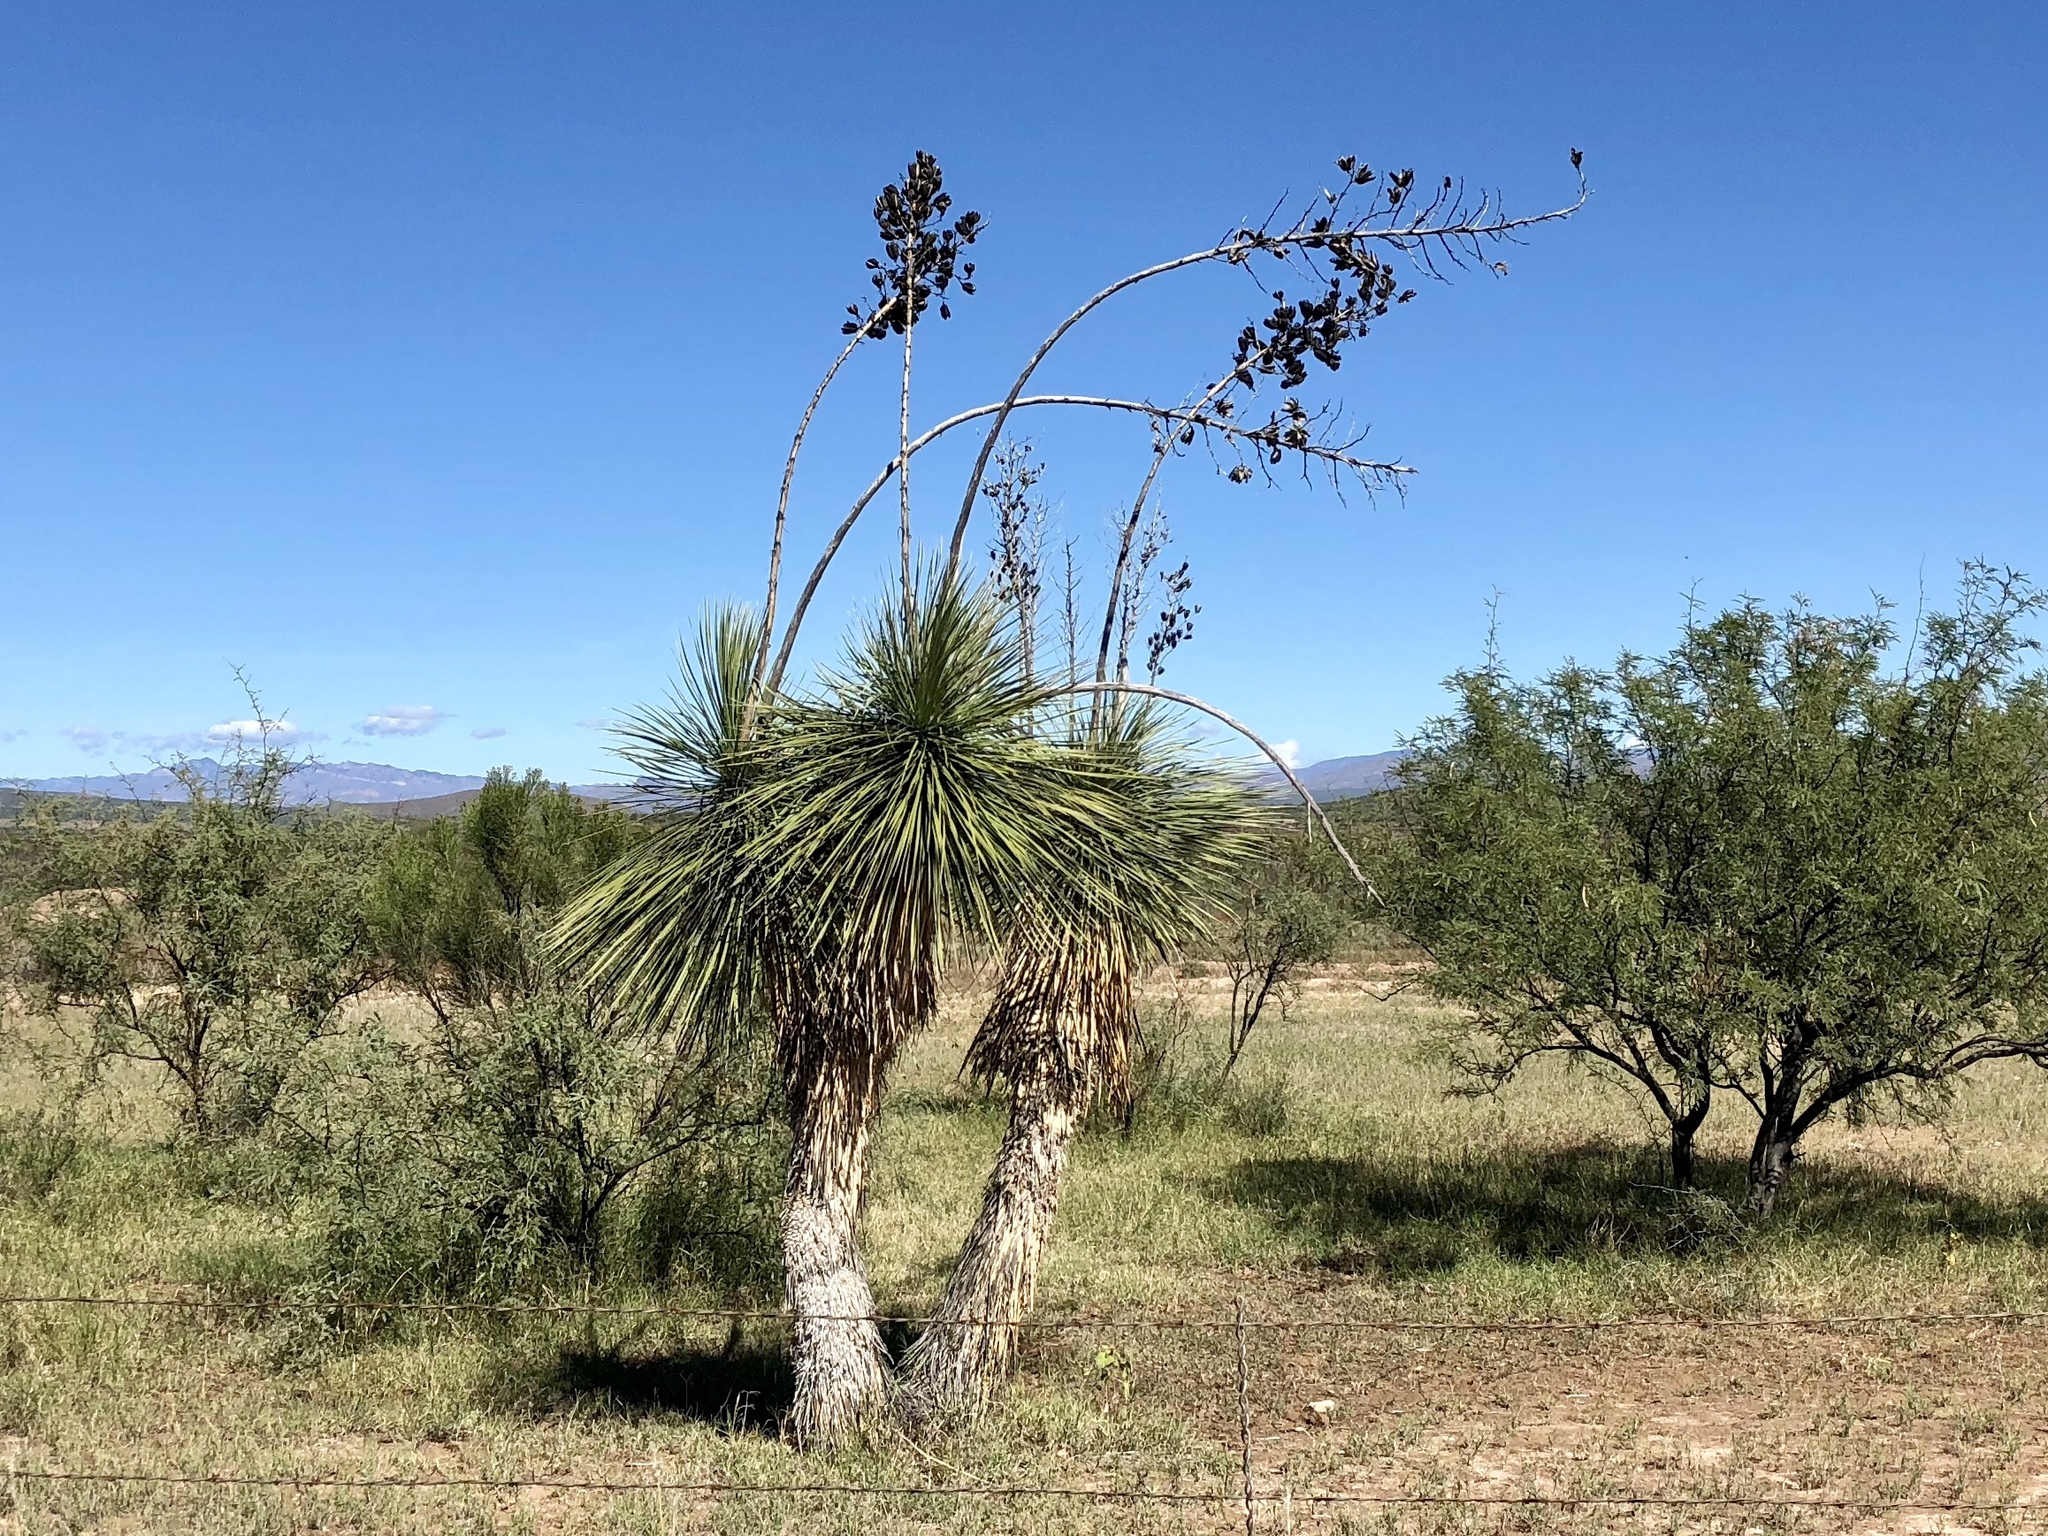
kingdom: Plantae
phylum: Tracheophyta
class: Liliopsida
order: Asparagales
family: Asparagaceae
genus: Yucca
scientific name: Yucca elata
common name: Palmella
